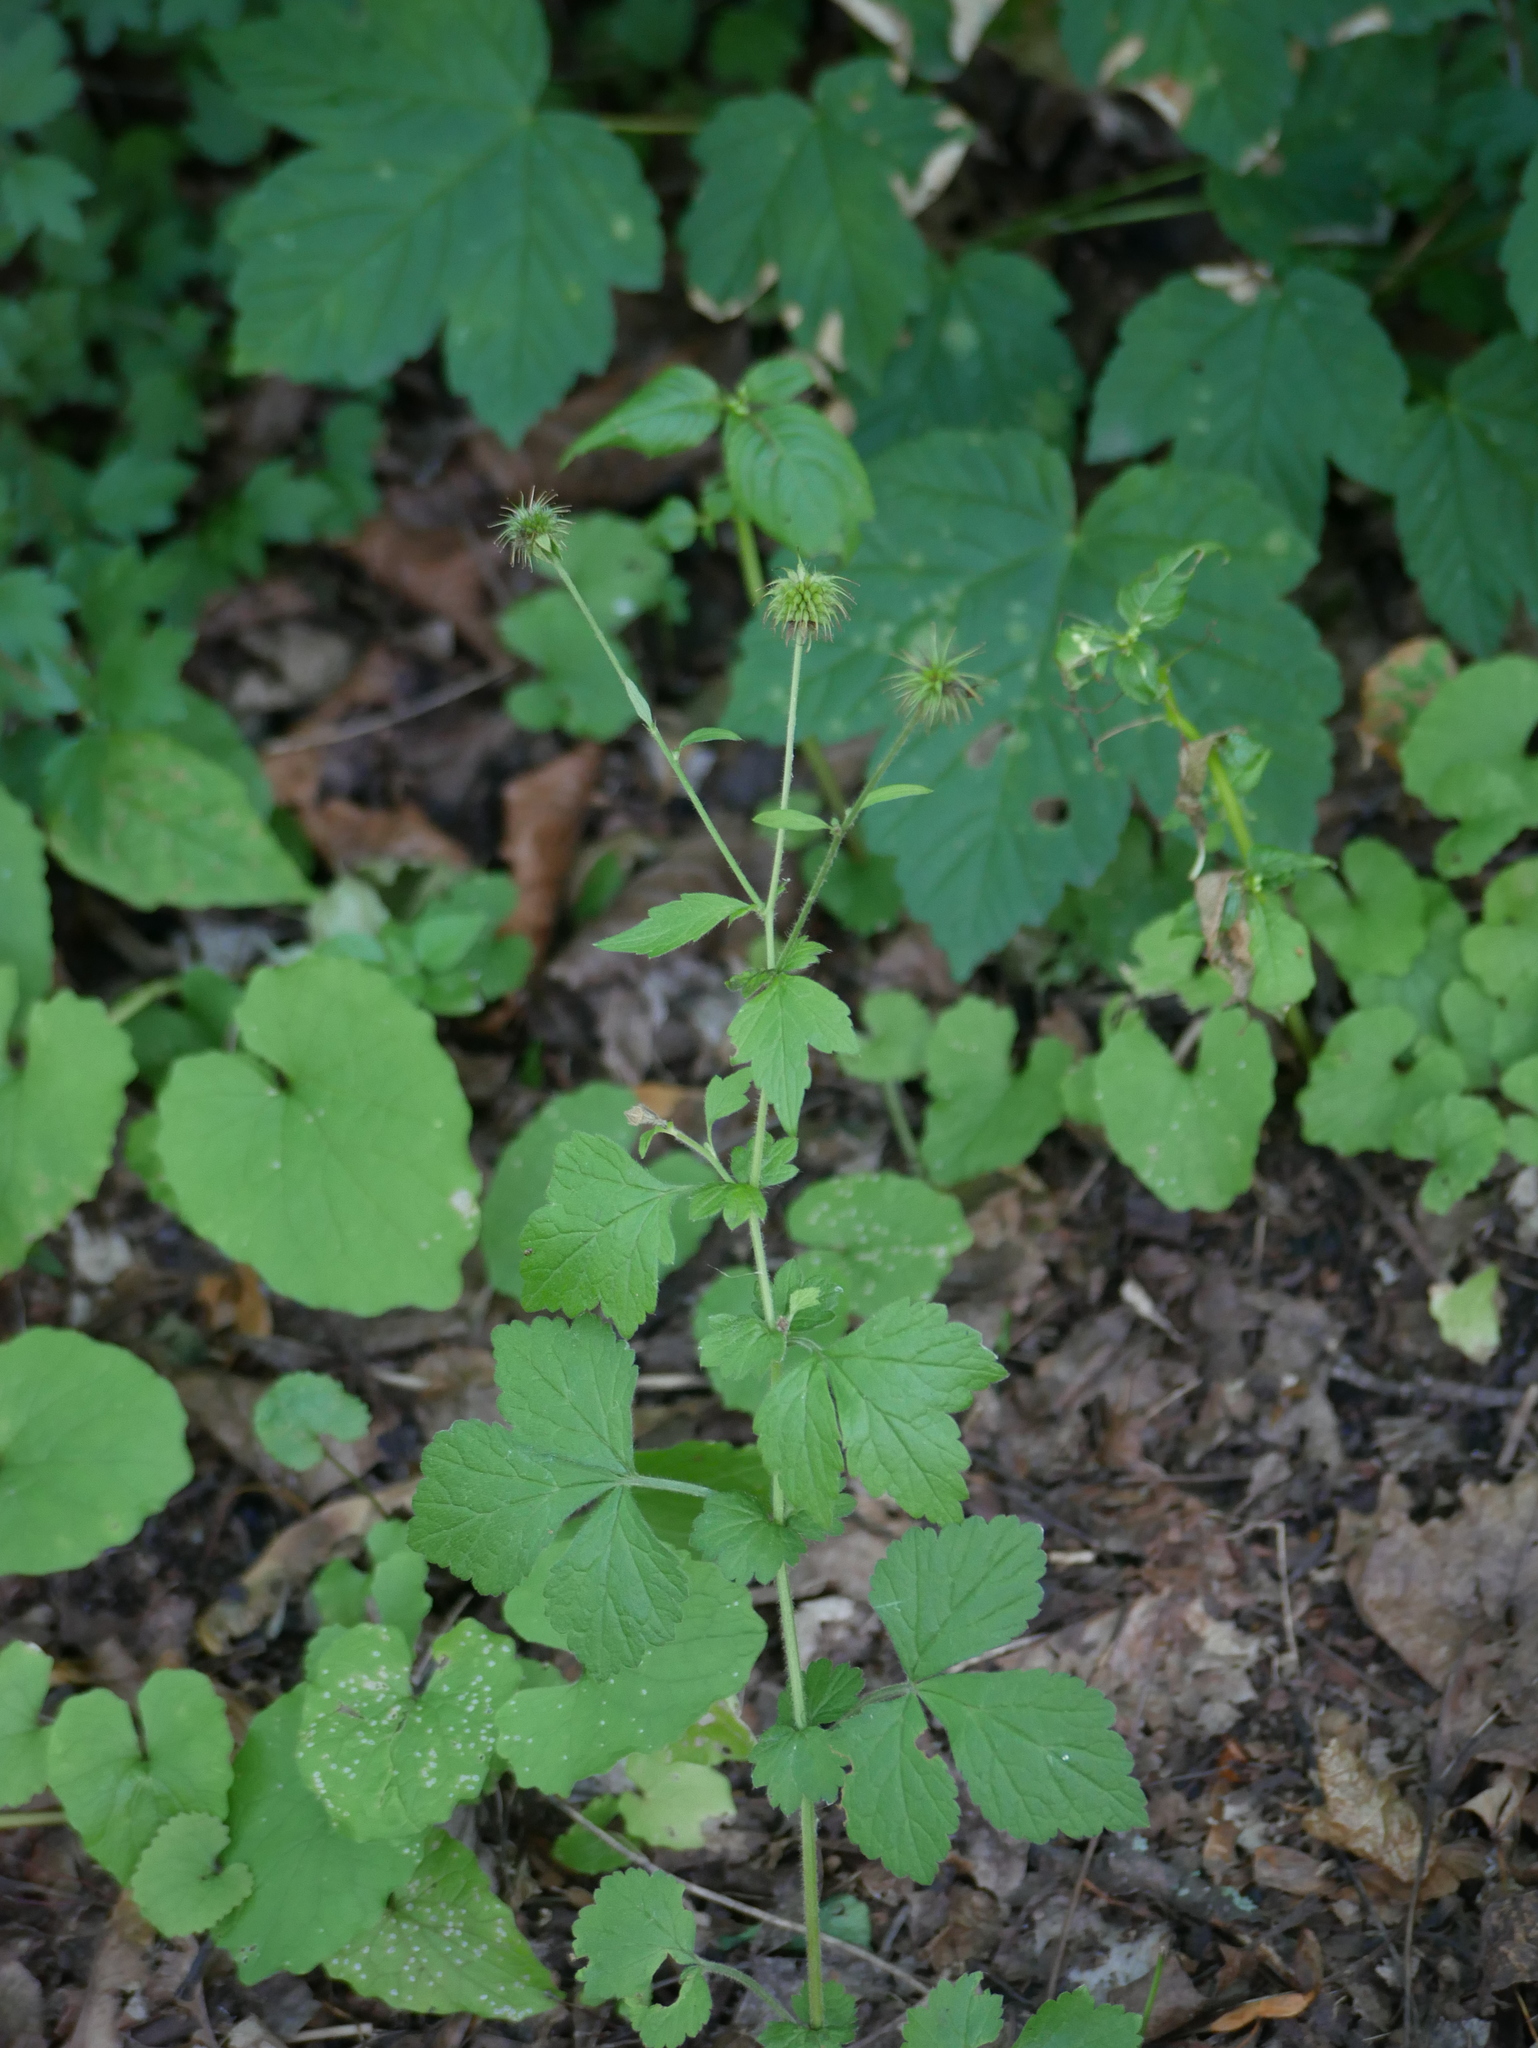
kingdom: Plantae
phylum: Tracheophyta
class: Magnoliopsida
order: Rosales
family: Rosaceae
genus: Geum
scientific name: Geum urbanum
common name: Wood avens
